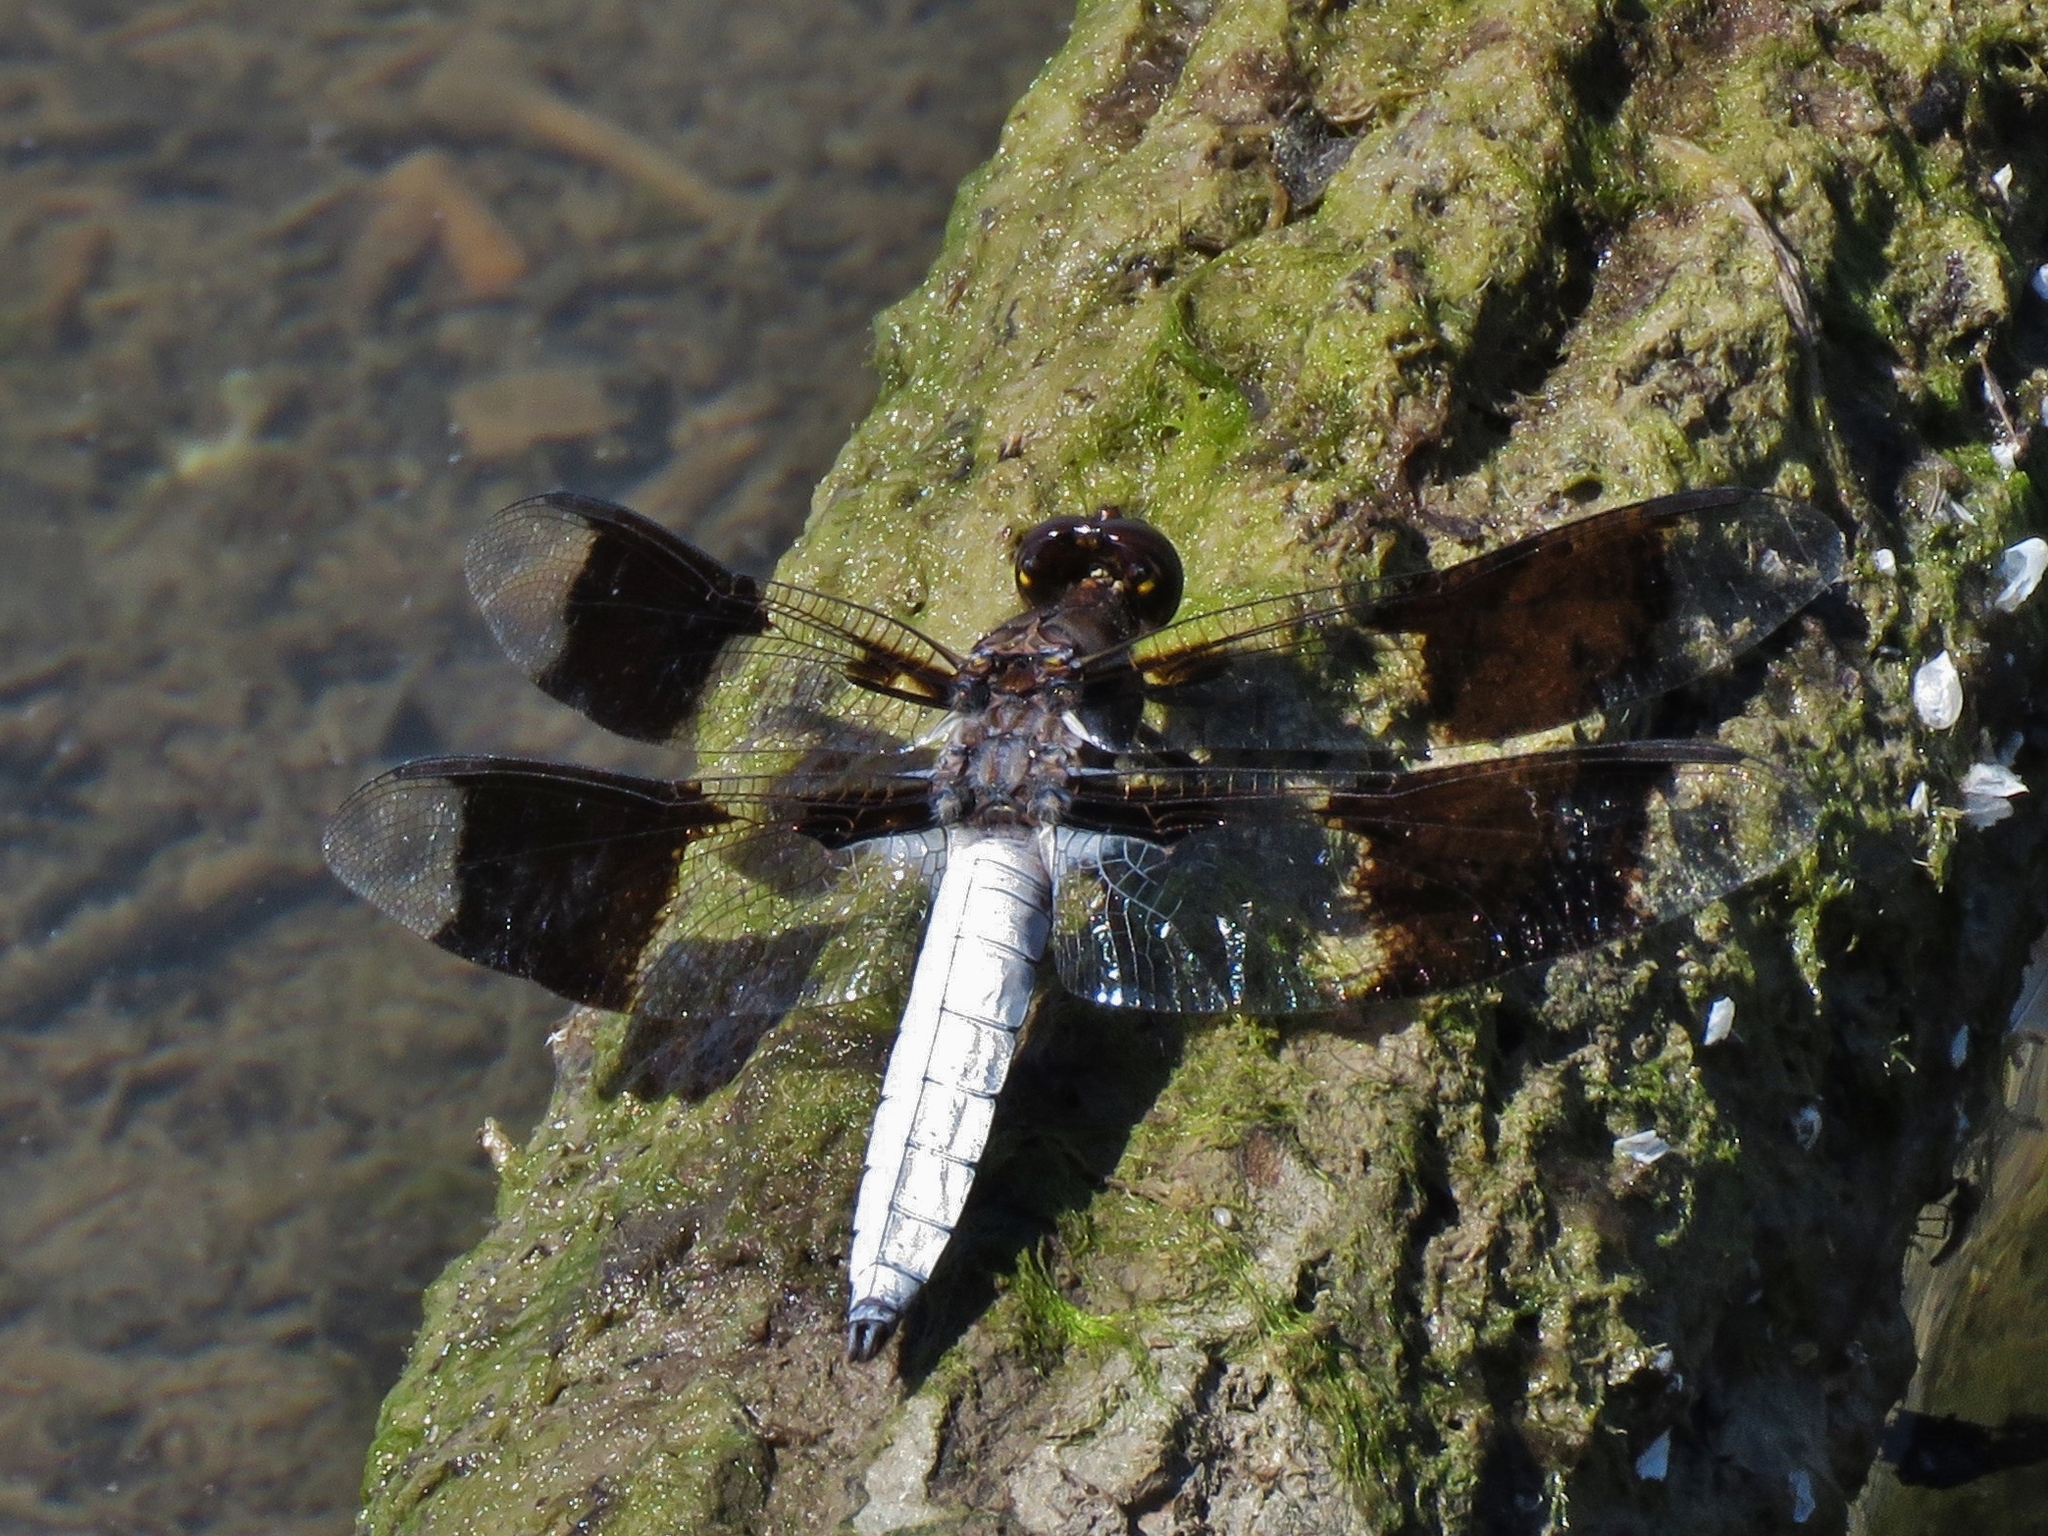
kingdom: Animalia
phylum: Arthropoda
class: Insecta
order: Odonata
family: Libellulidae
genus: Plathemis
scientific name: Plathemis lydia
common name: Common whitetail
